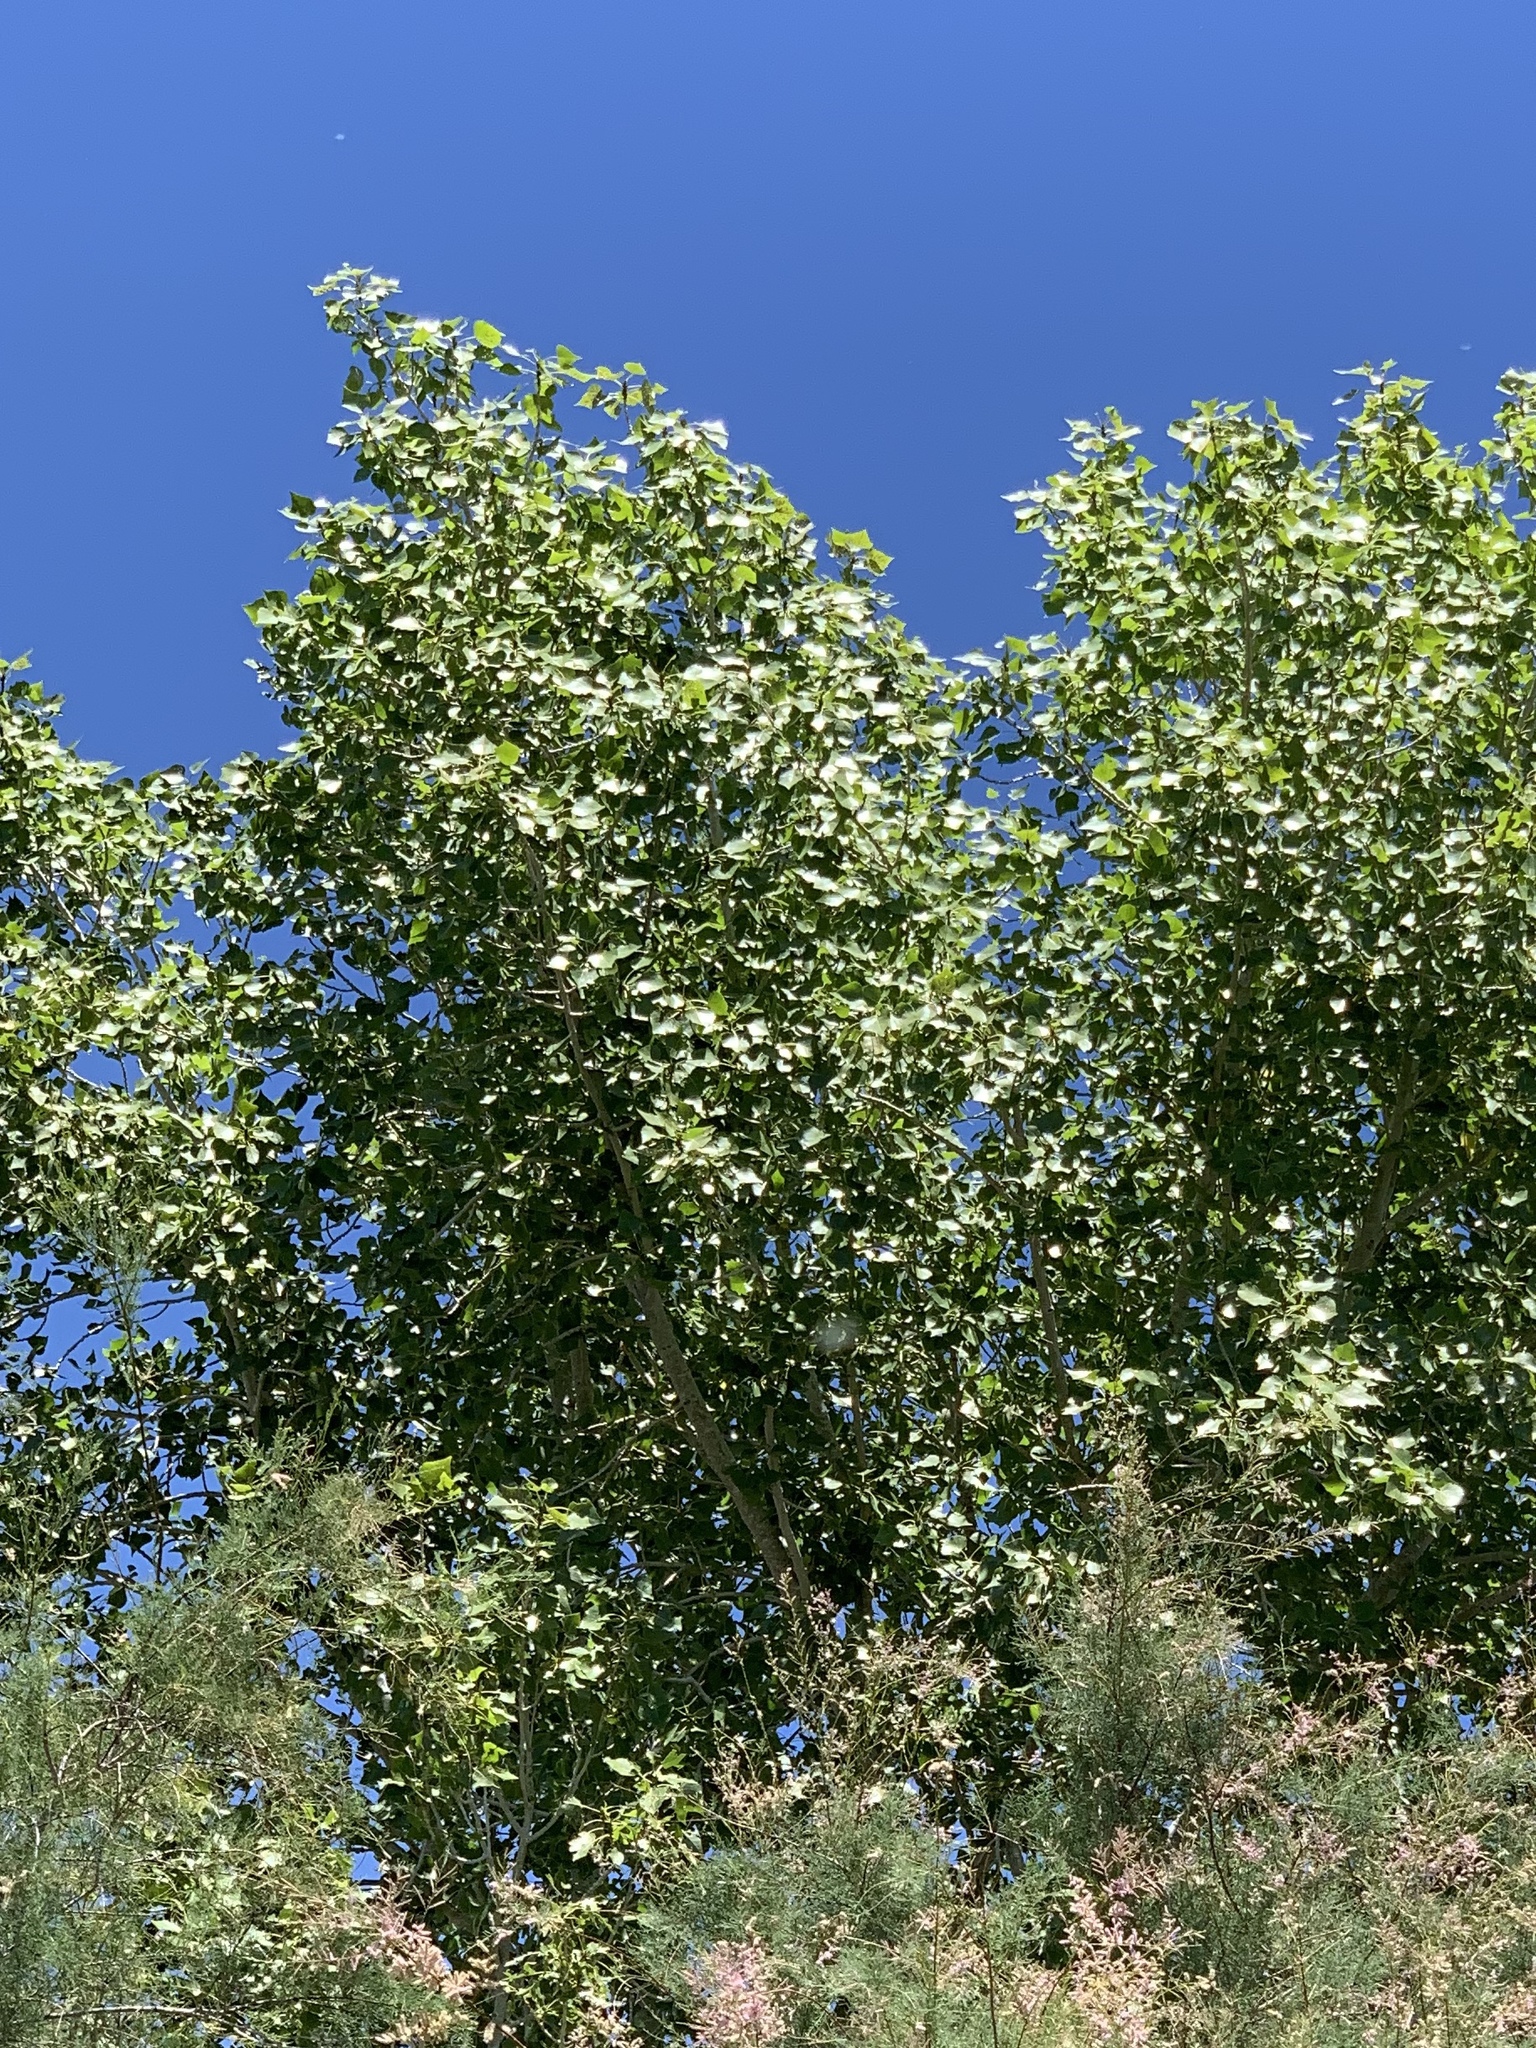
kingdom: Plantae
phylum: Tracheophyta
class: Magnoliopsida
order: Malpighiales
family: Salicaceae
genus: Populus
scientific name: Populus fremontii
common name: Fremont's cottonwood
